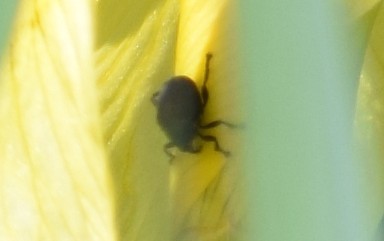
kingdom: Animalia
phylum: Arthropoda
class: Insecta
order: Coleoptera
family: Curculionidae
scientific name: Curculionidae
